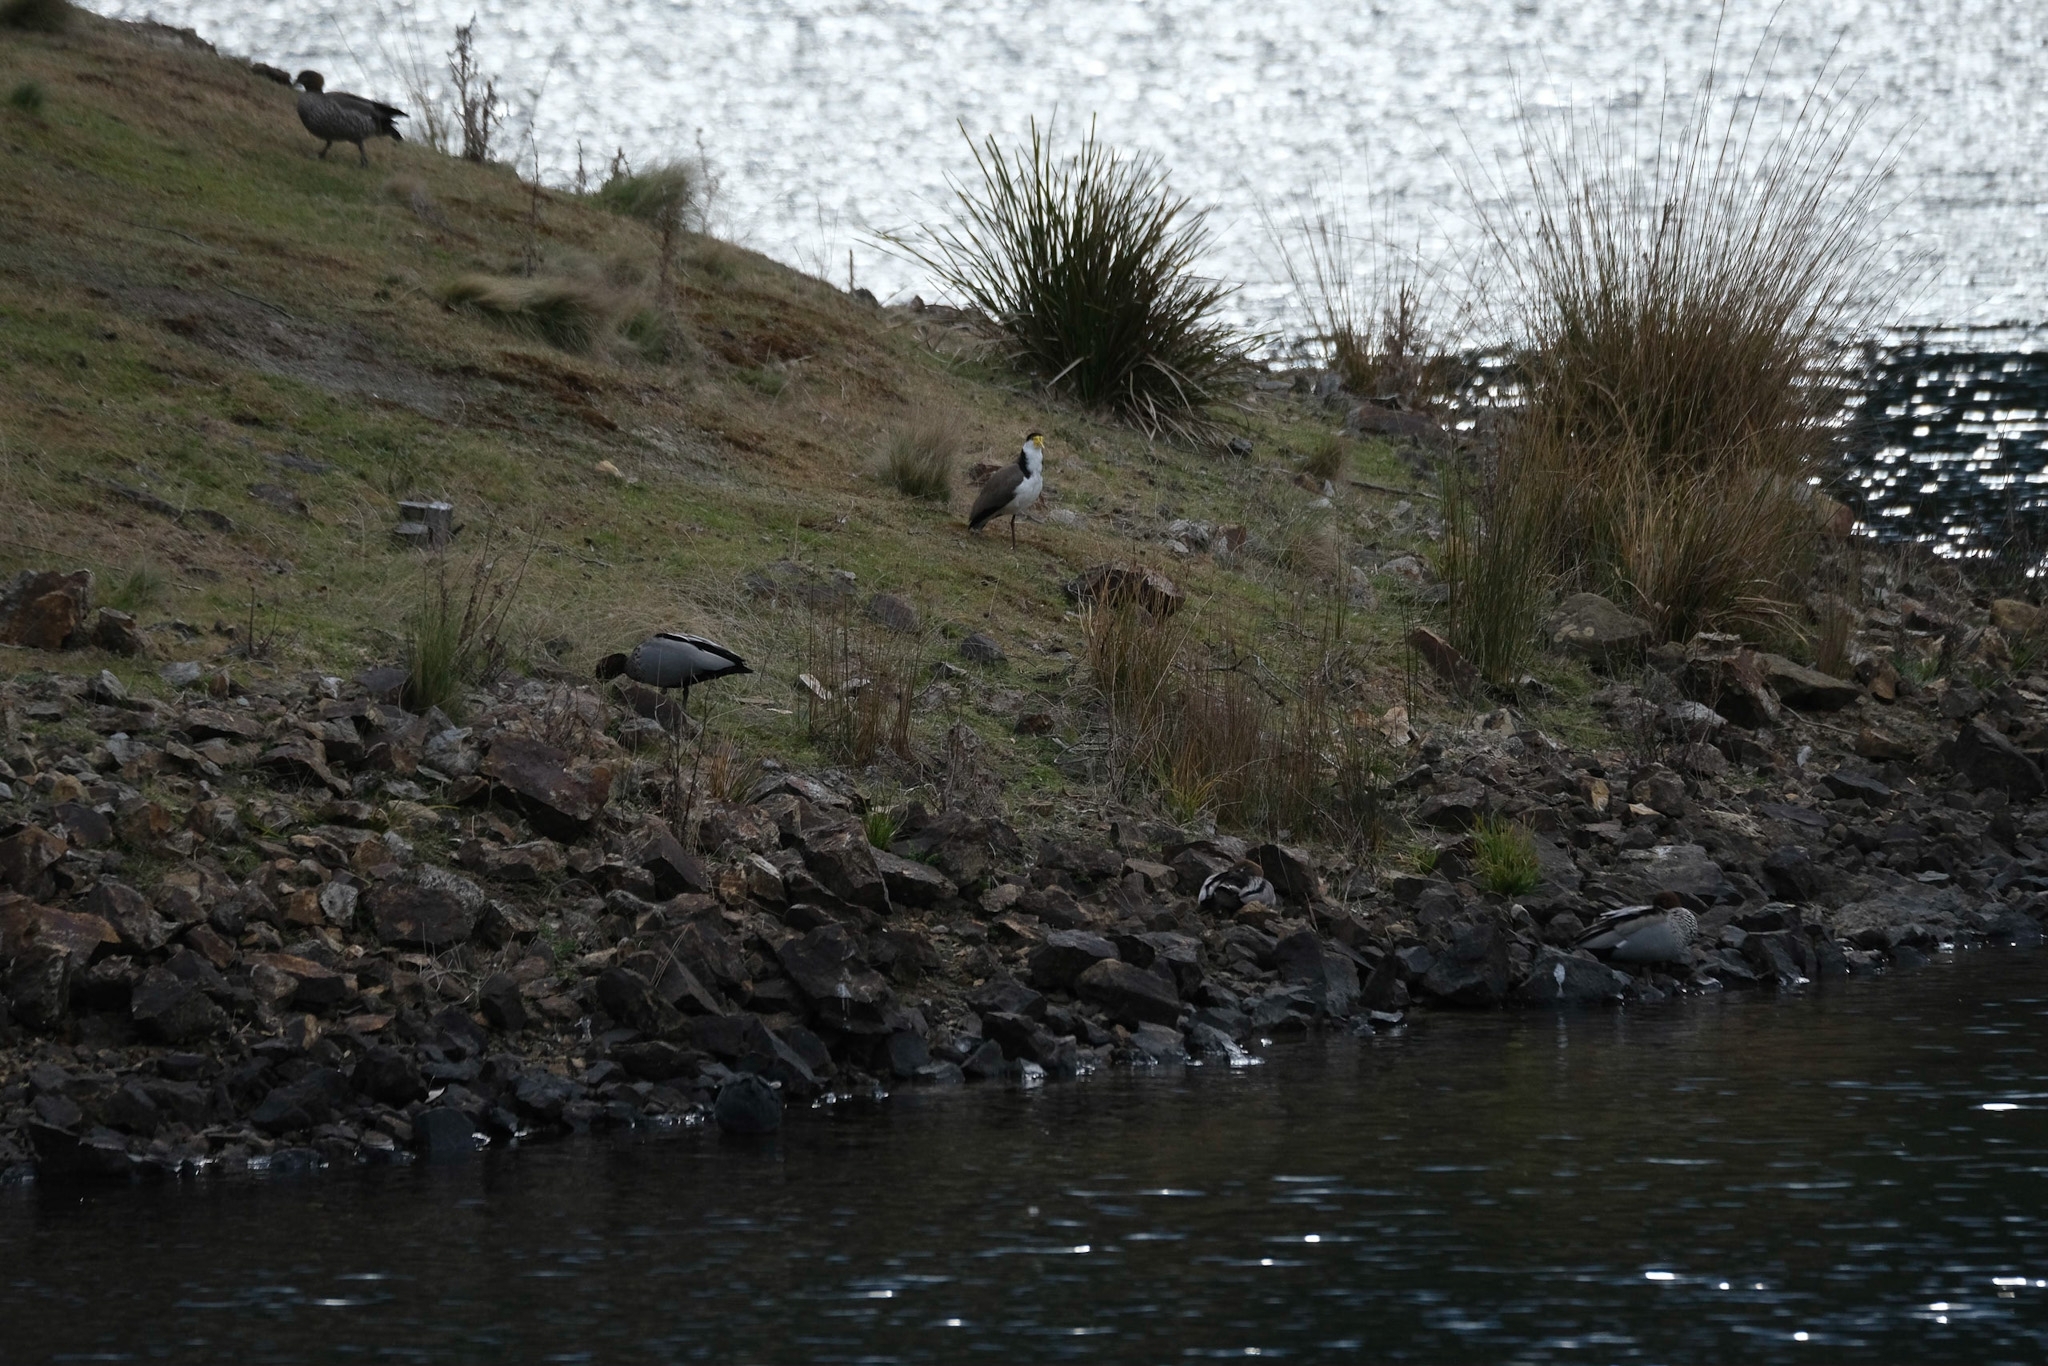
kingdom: Animalia
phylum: Chordata
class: Aves
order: Charadriiformes
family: Charadriidae
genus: Vanellus
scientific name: Vanellus miles
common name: Masked lapwing
